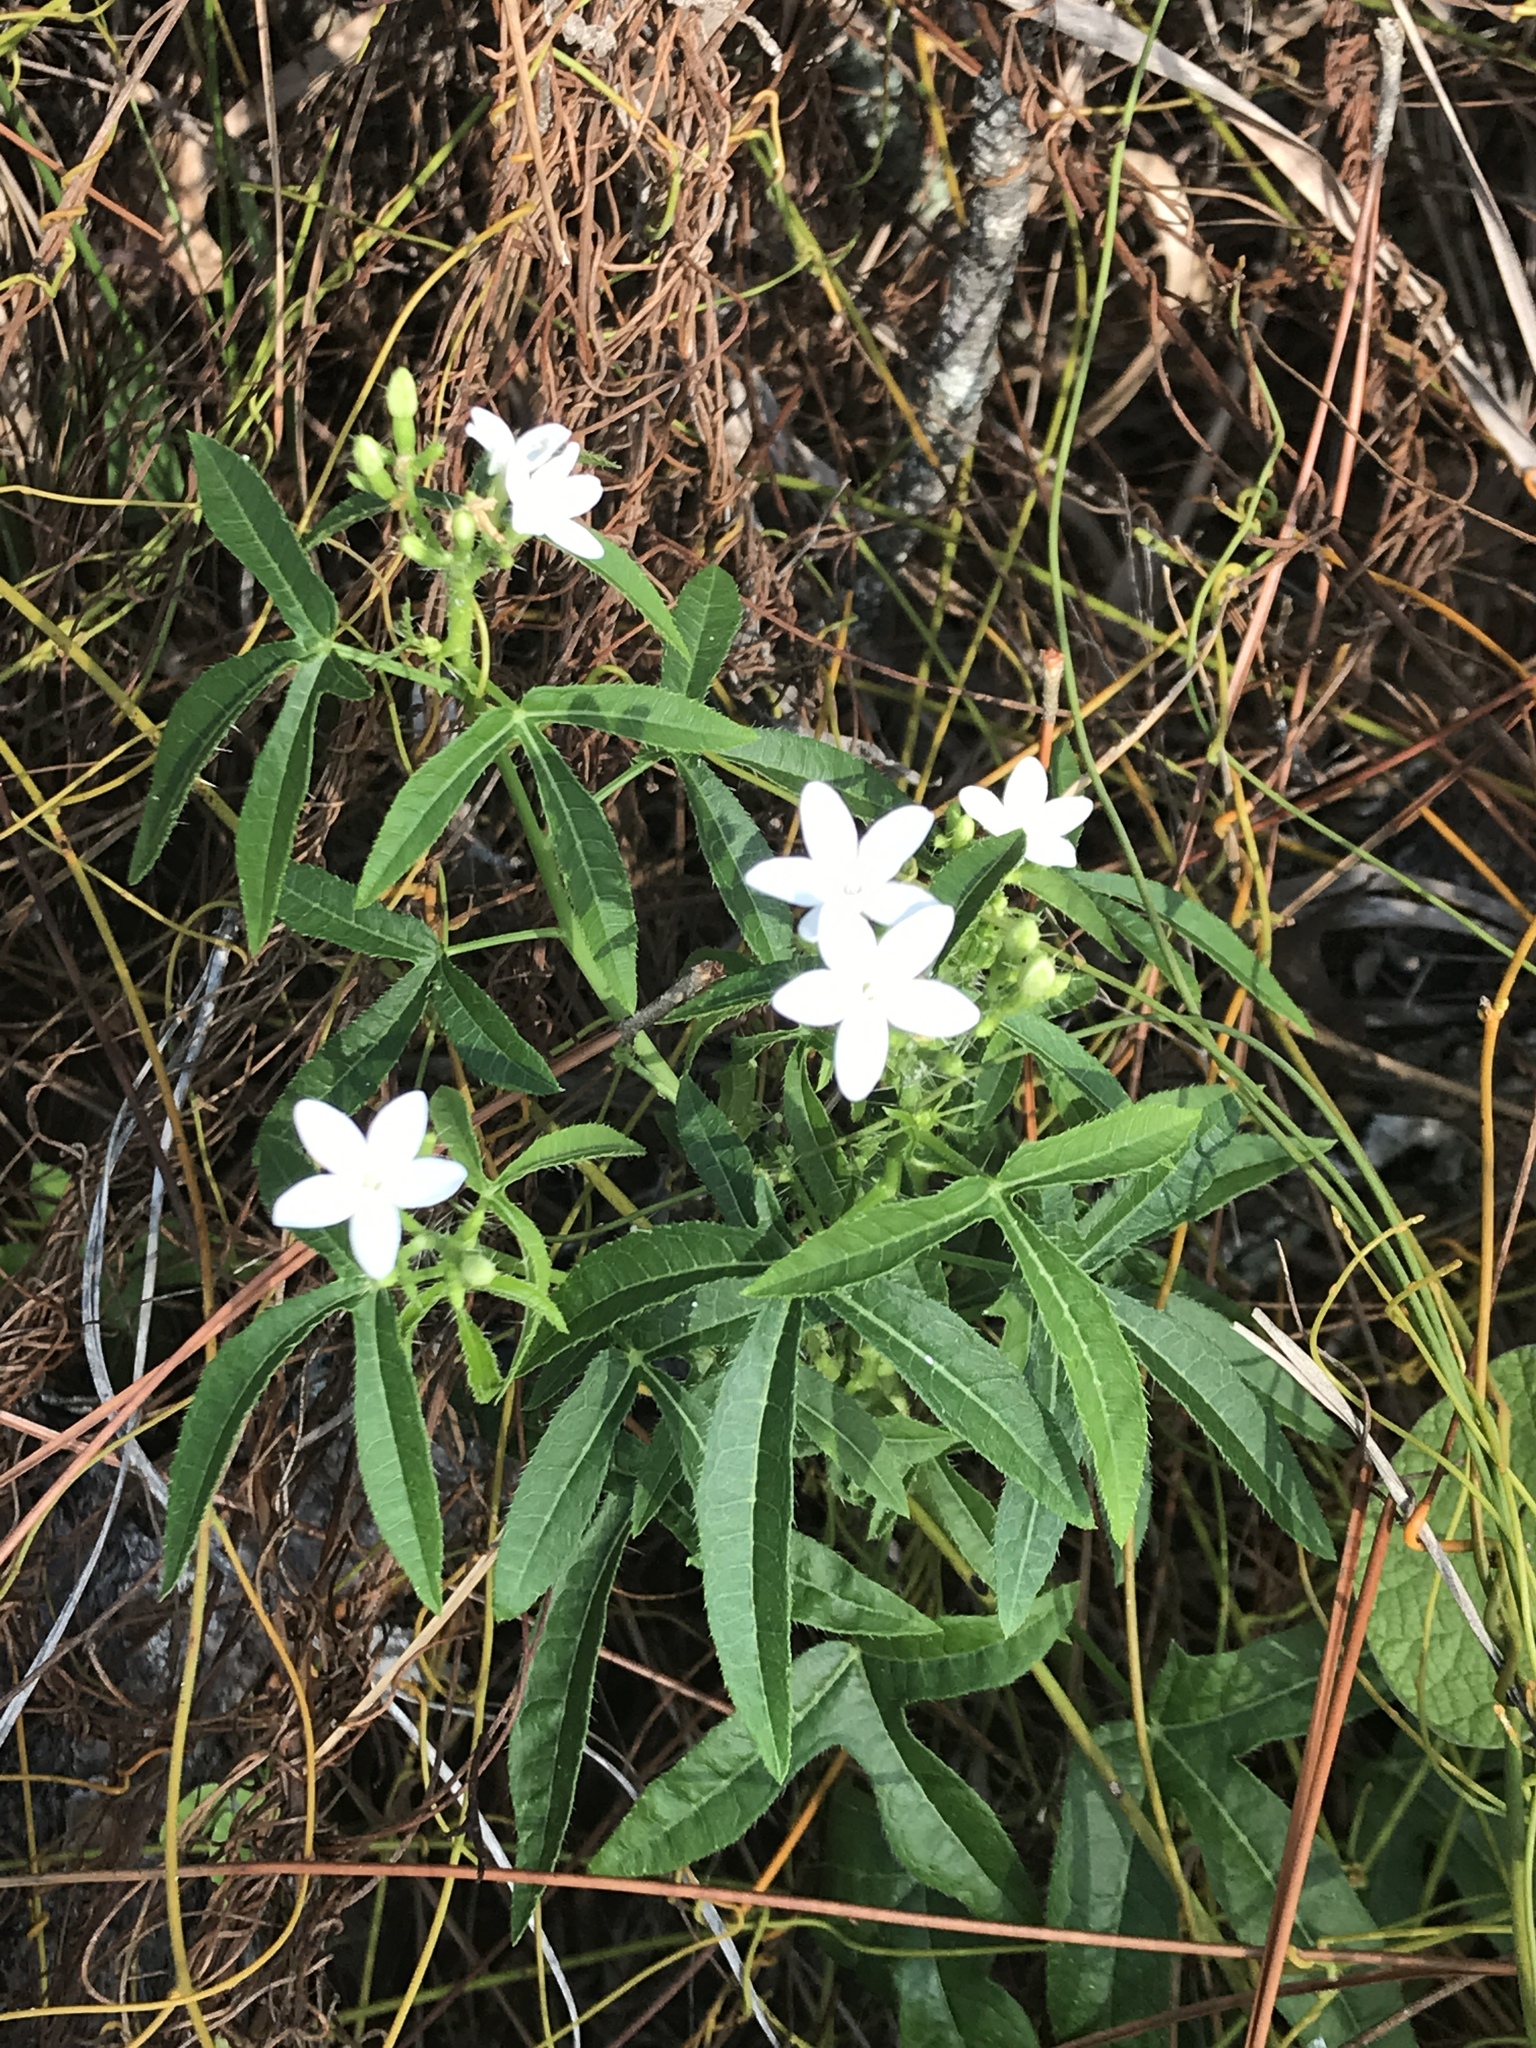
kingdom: Plantae
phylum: Tracheophyta
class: Magnoliopsida
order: Malpighiales
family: Euphorbiaceae
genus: Cnidoscolus
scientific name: Cnidoscolus stimulosus
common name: Bull-nettle
